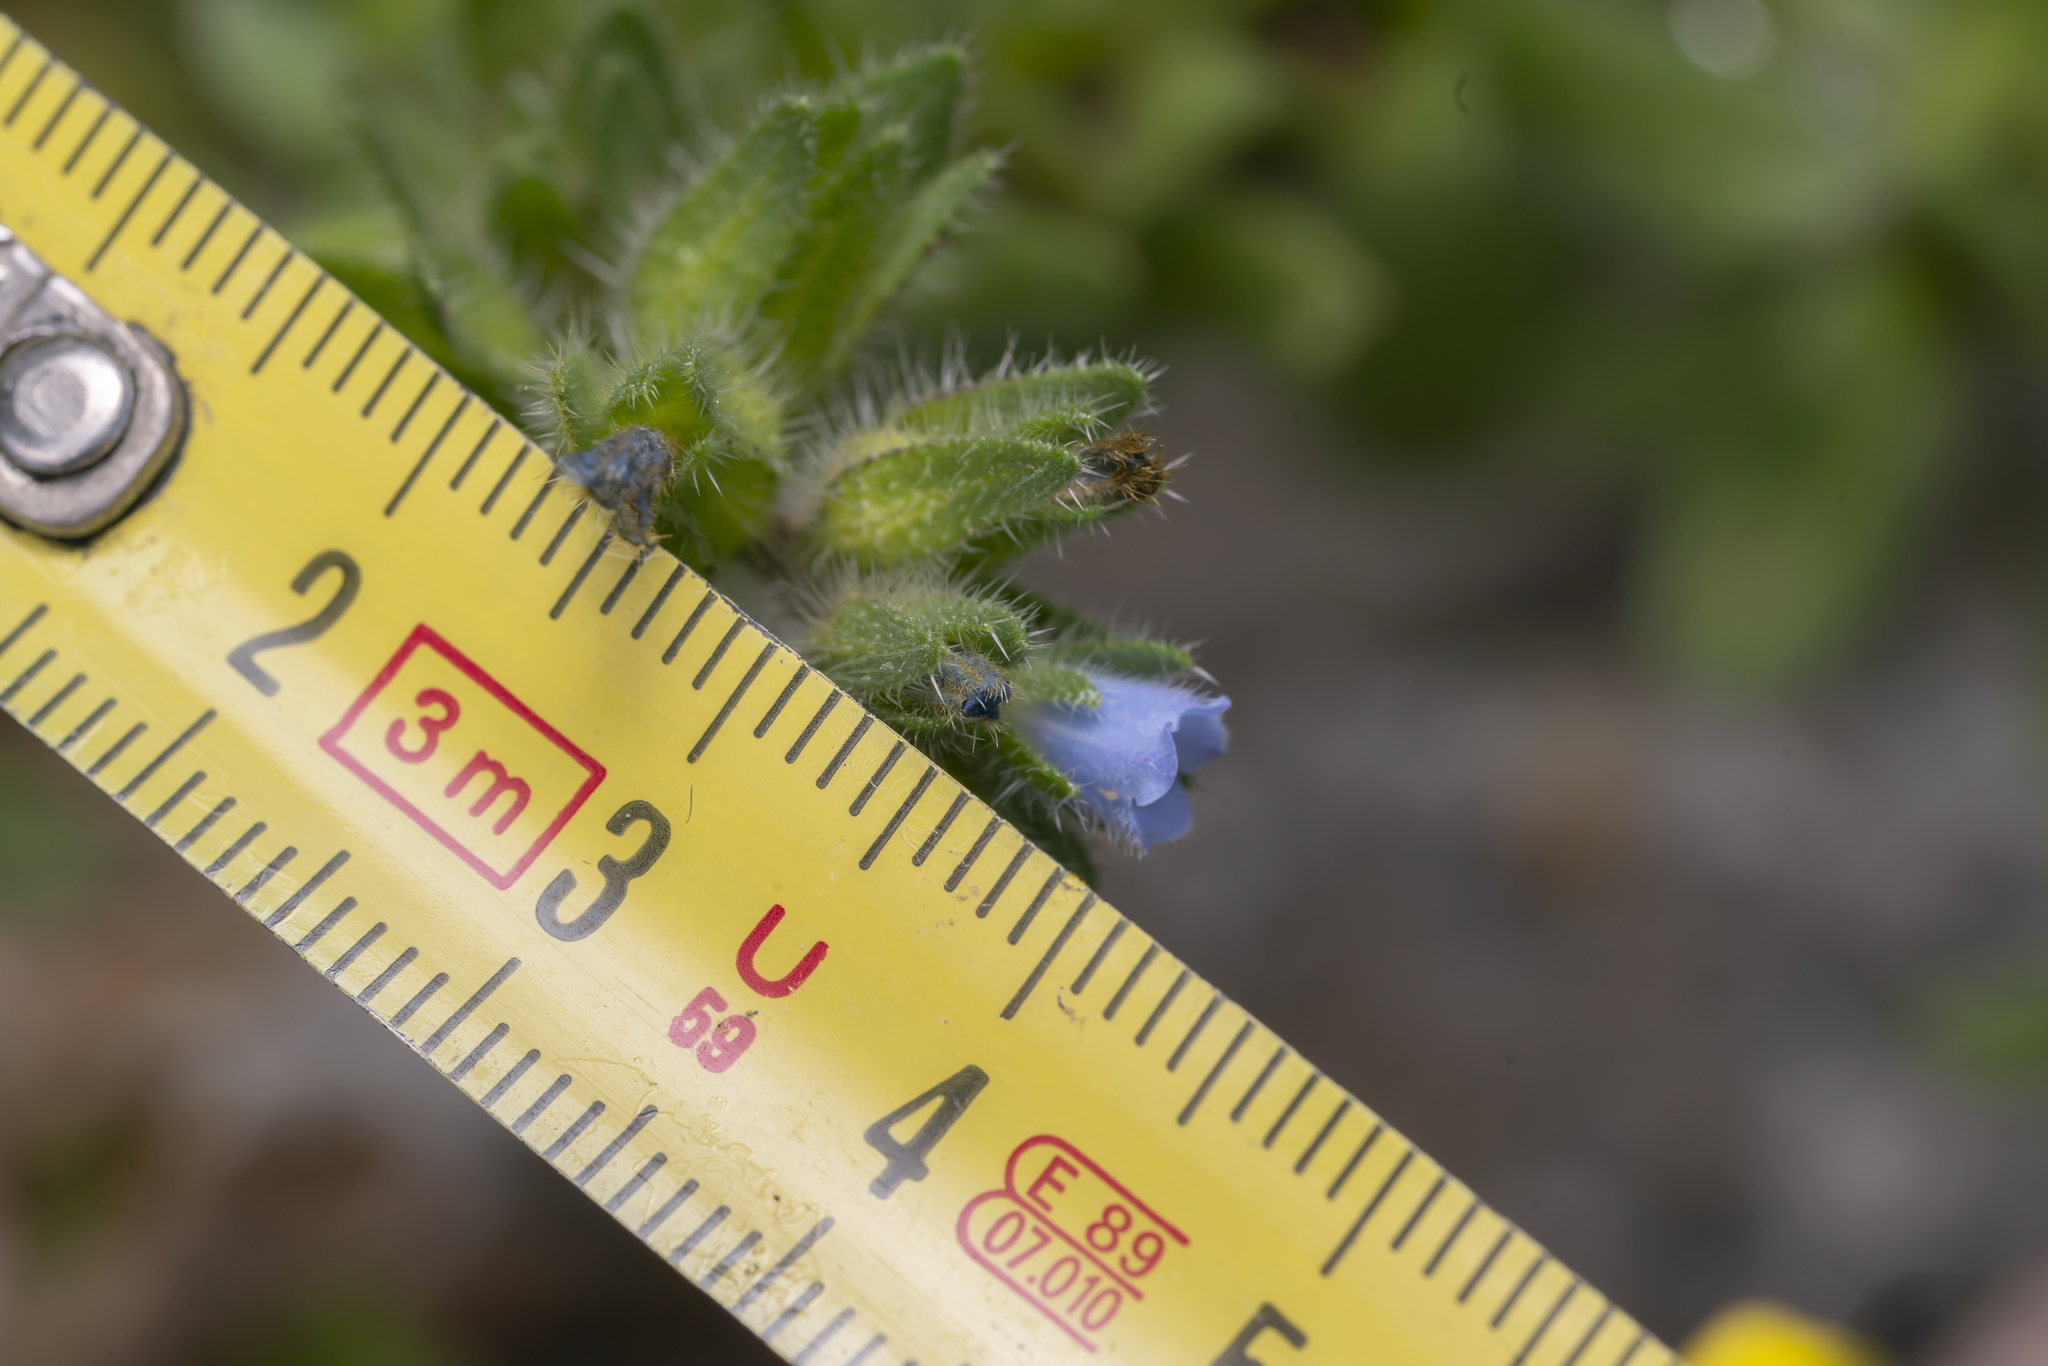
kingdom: Plantae
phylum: Tracheophyta
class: Magnoliopsida
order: Boraginales
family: Boraginaceae
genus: Echium
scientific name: Echium parviflorum
